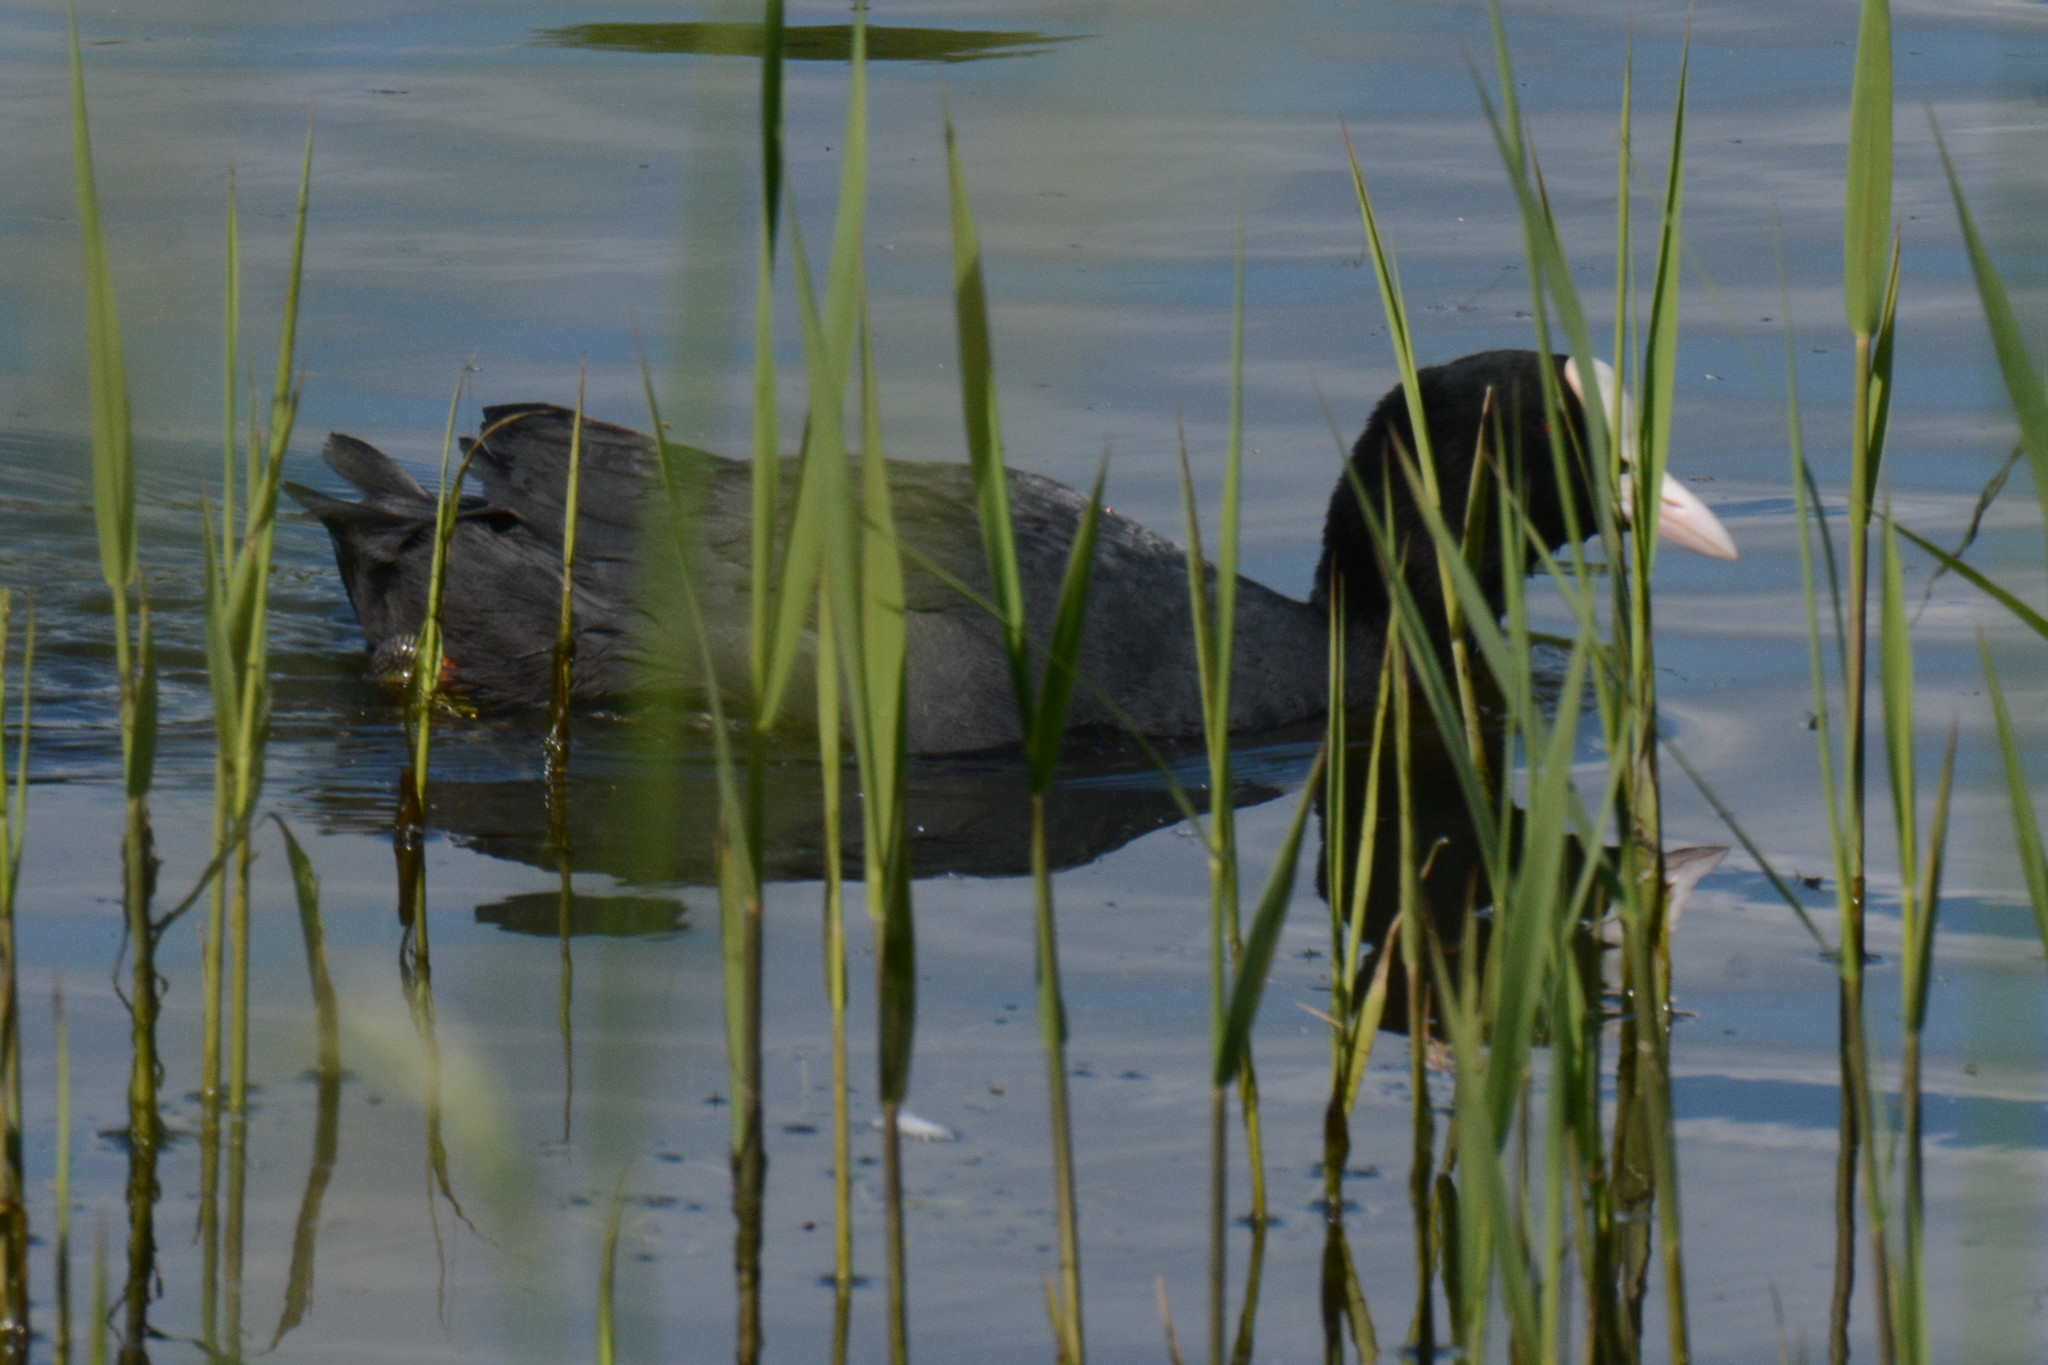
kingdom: Animalia
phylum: Chordata
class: Aves
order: Gruiformes
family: Rallidae
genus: Fulica
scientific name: Fulica atra
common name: Eurasian coot
